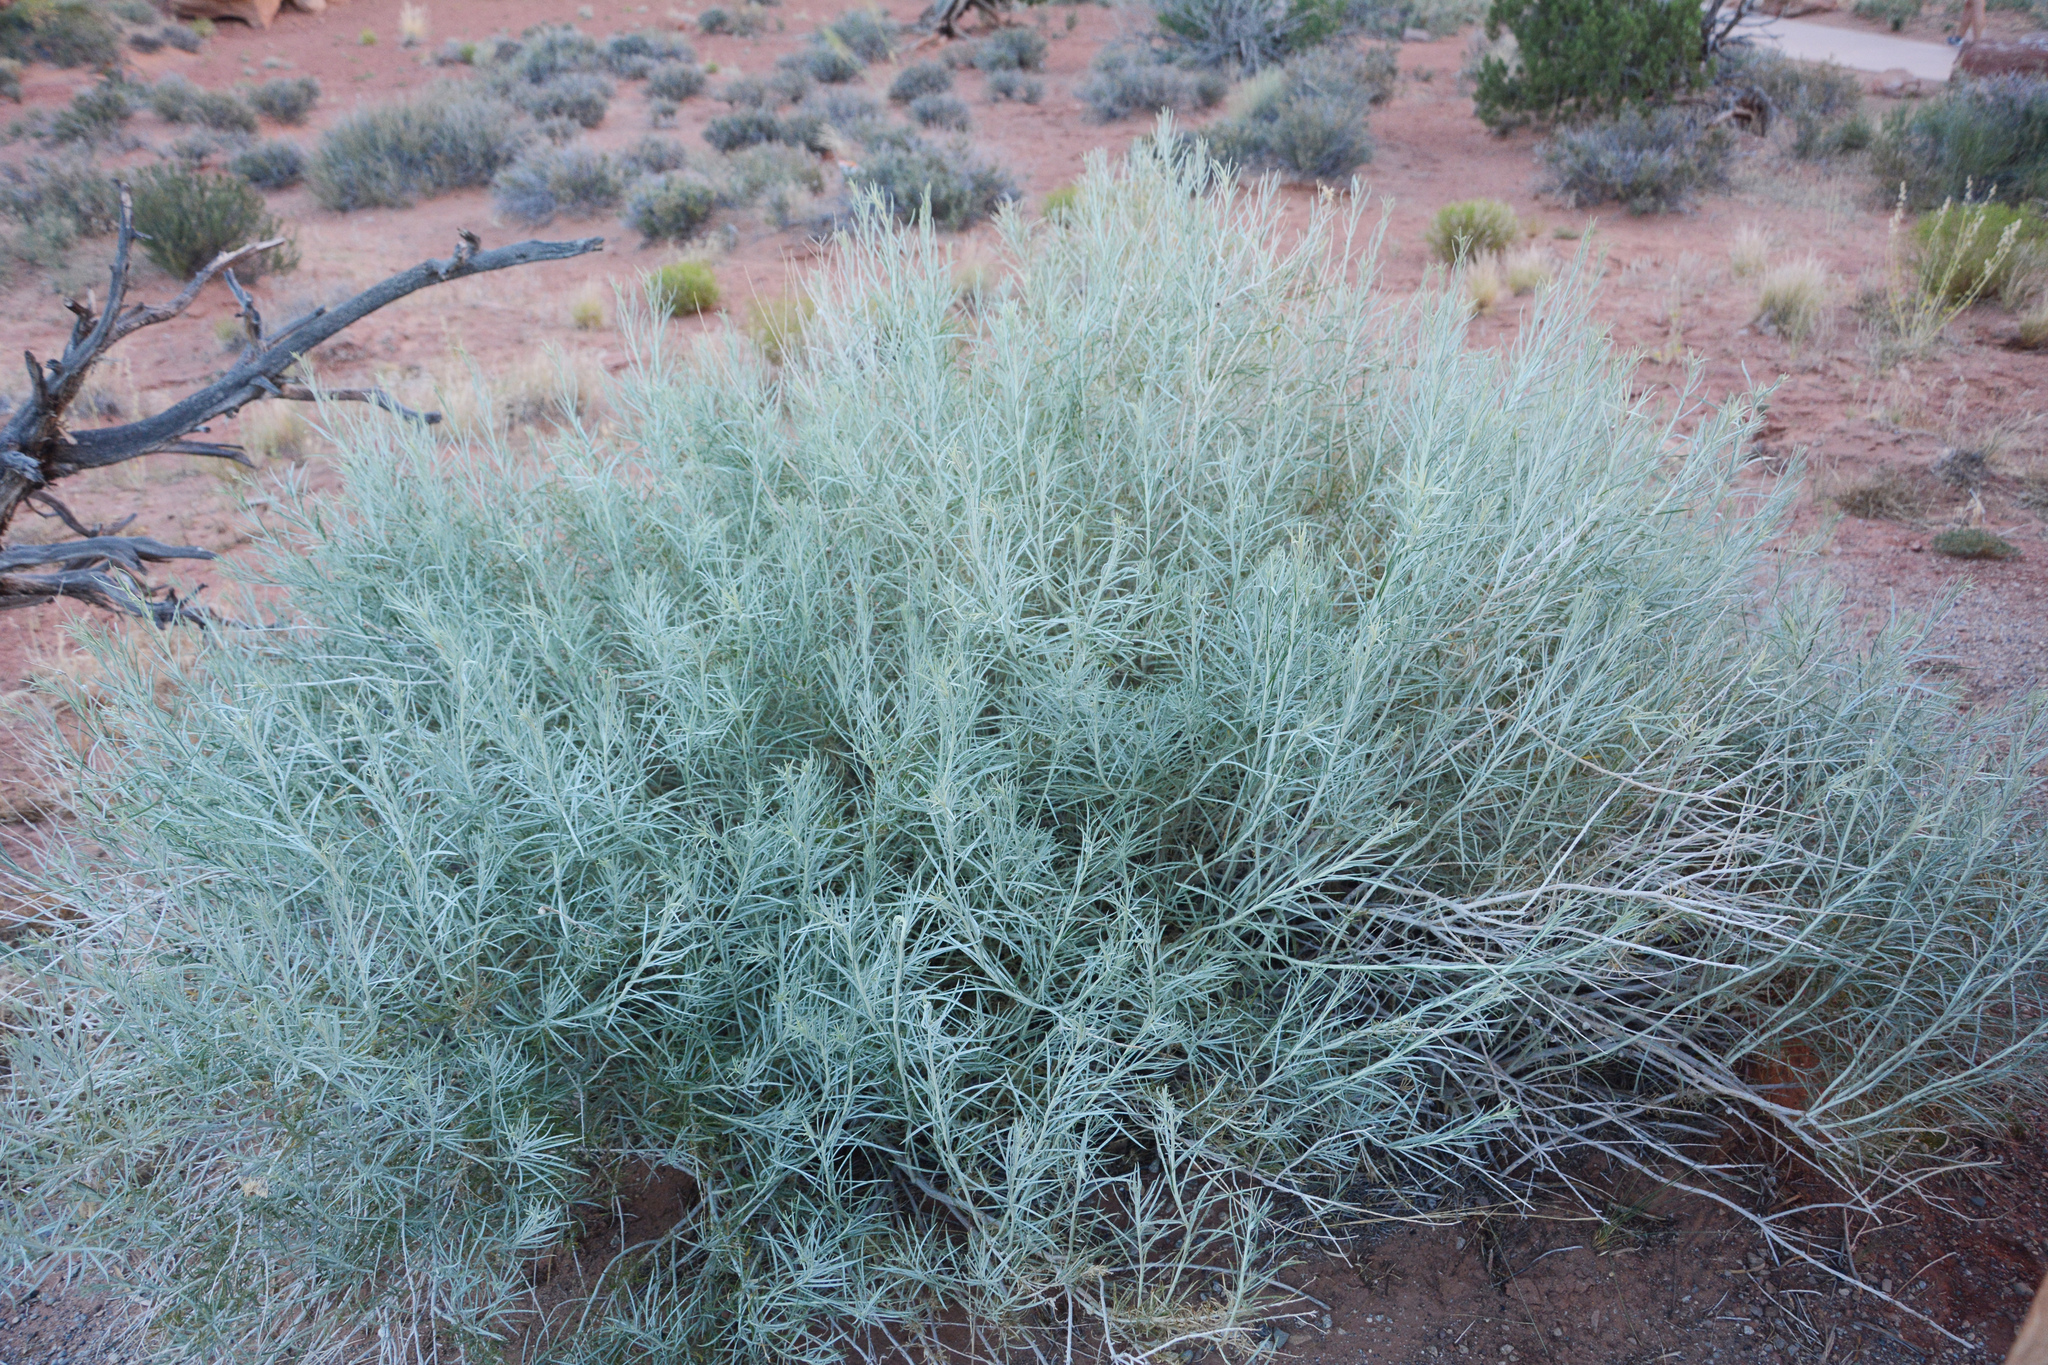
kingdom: Plantae
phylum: Tracheophyta
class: Magnoliopsida
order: Asterales
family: Asteraceae
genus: Artemisia
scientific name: Artemisia filifolia
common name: Sand-sage
